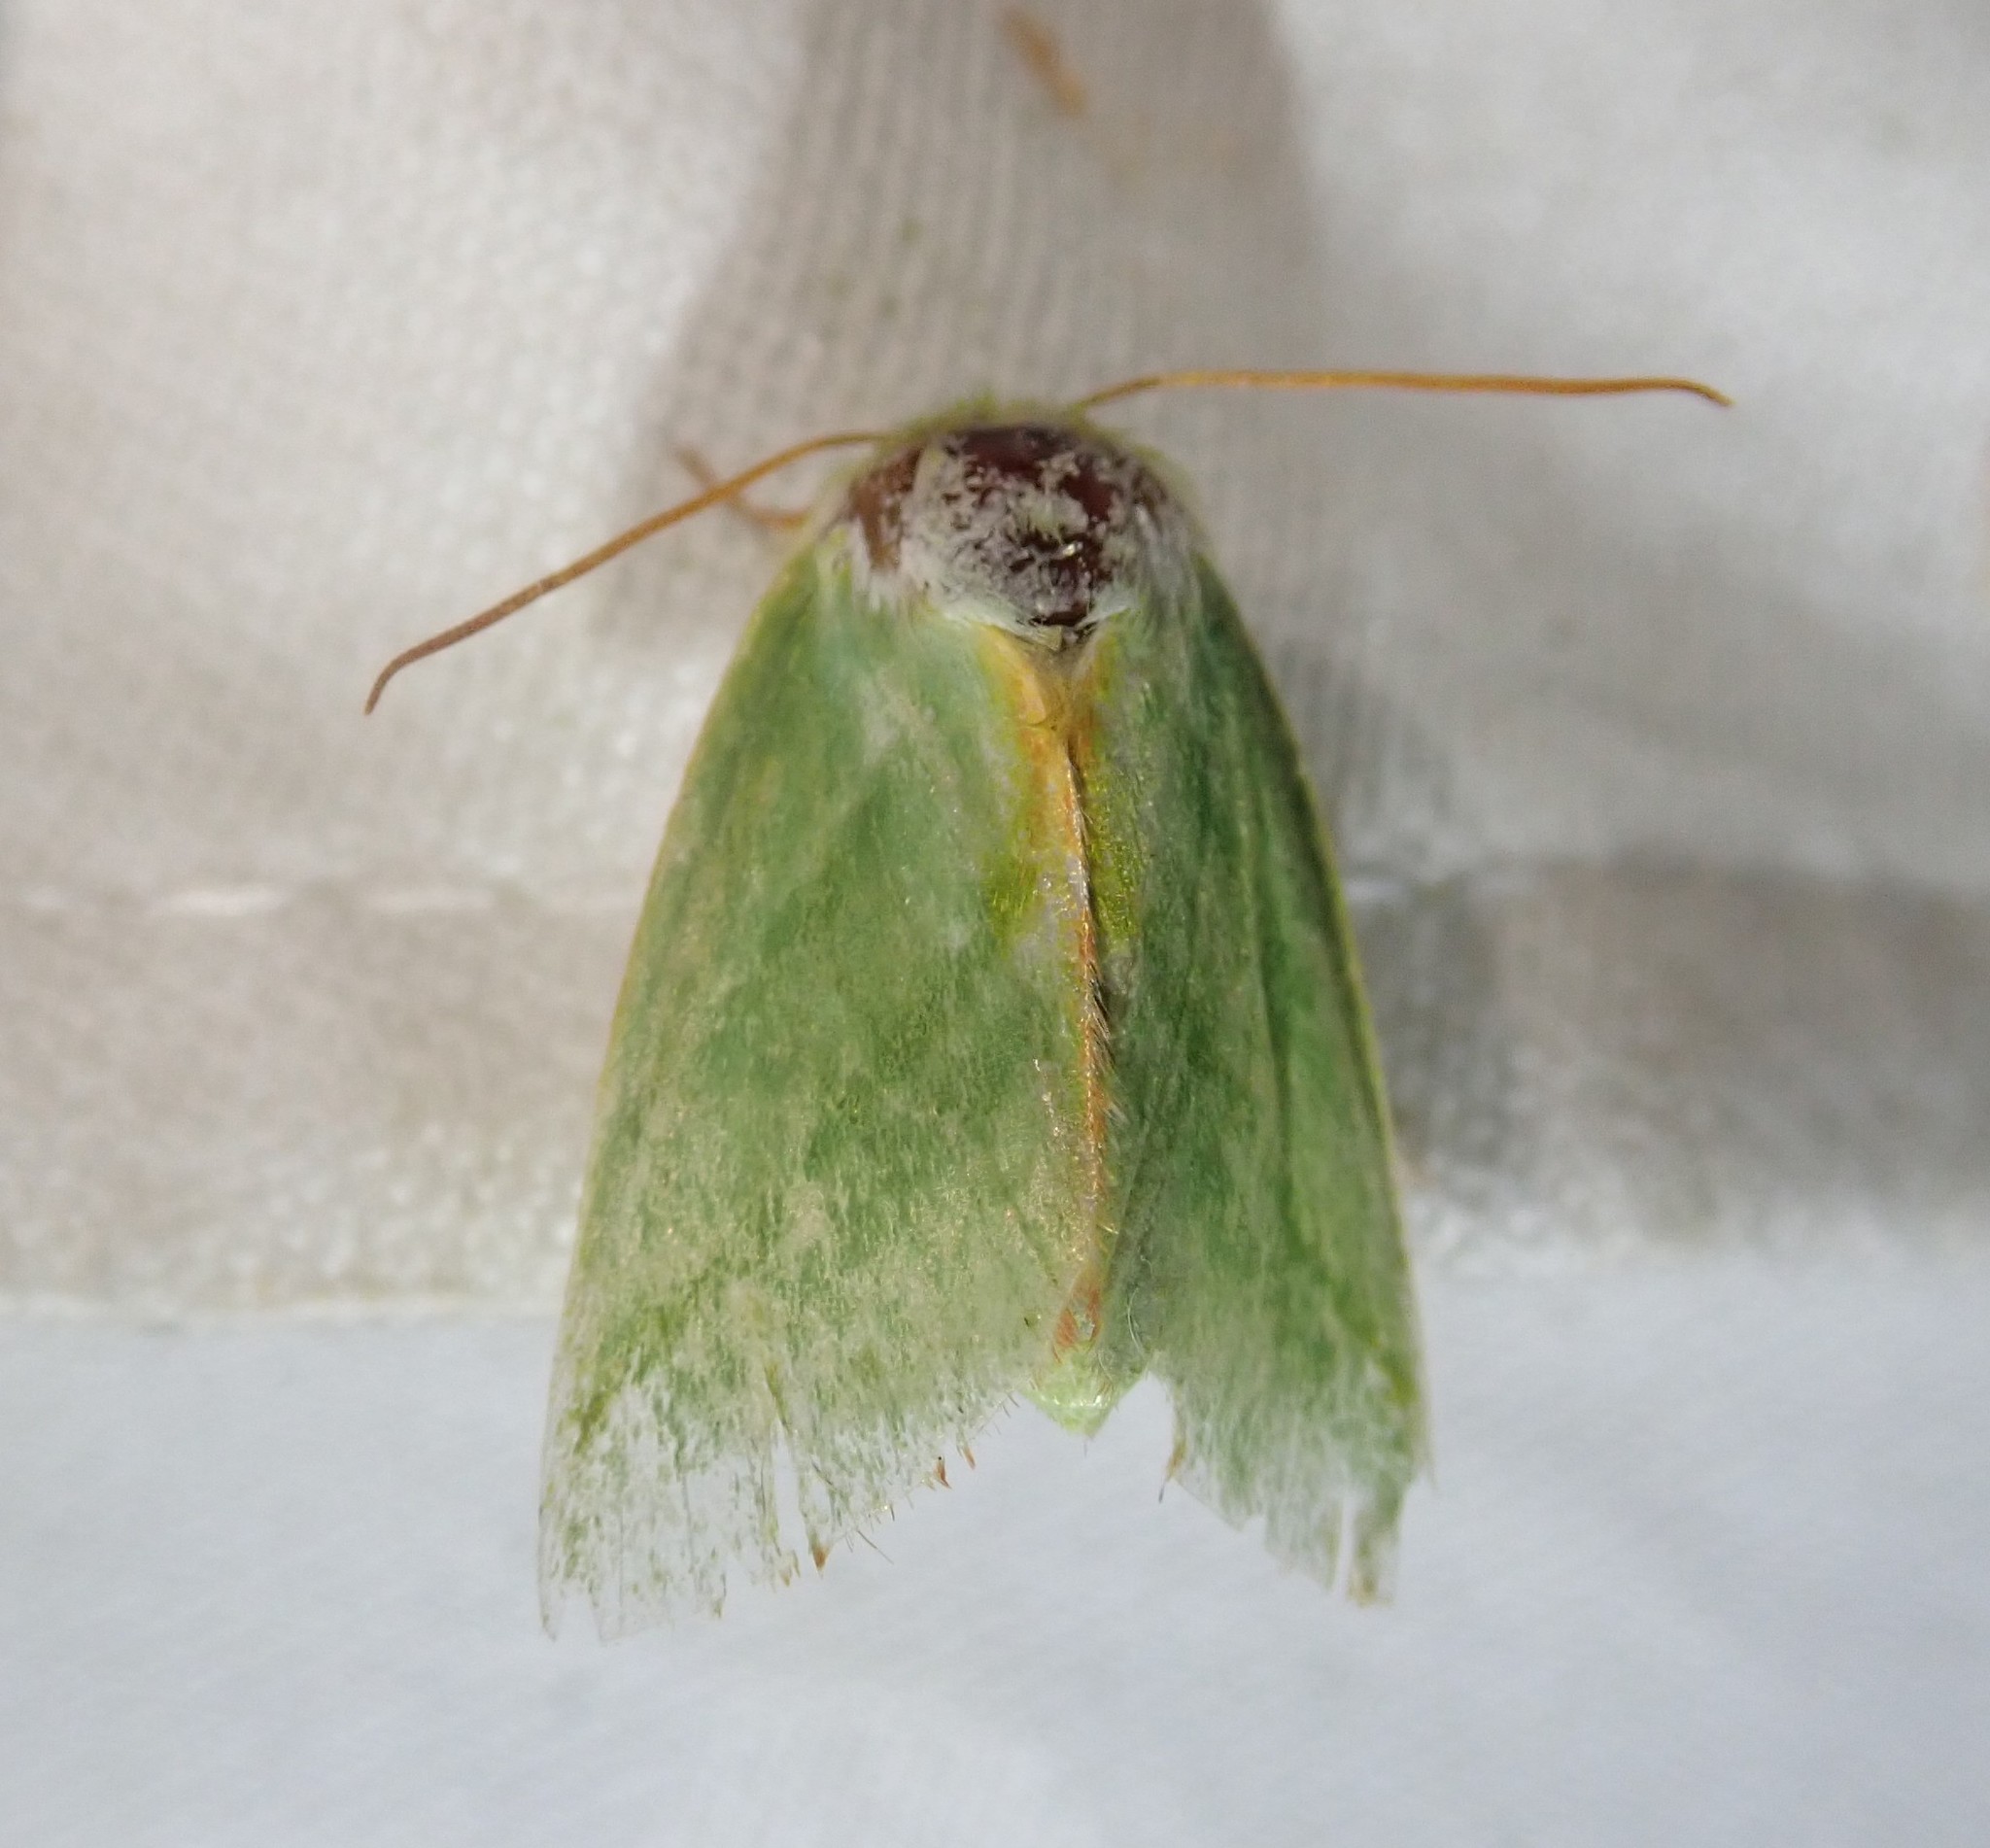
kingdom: Animalia
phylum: Arthropoda
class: Insecta
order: Lepidoptera
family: Nolidae
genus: Pseudoips
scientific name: Pseudoips prasinana
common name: Green silver-lines
